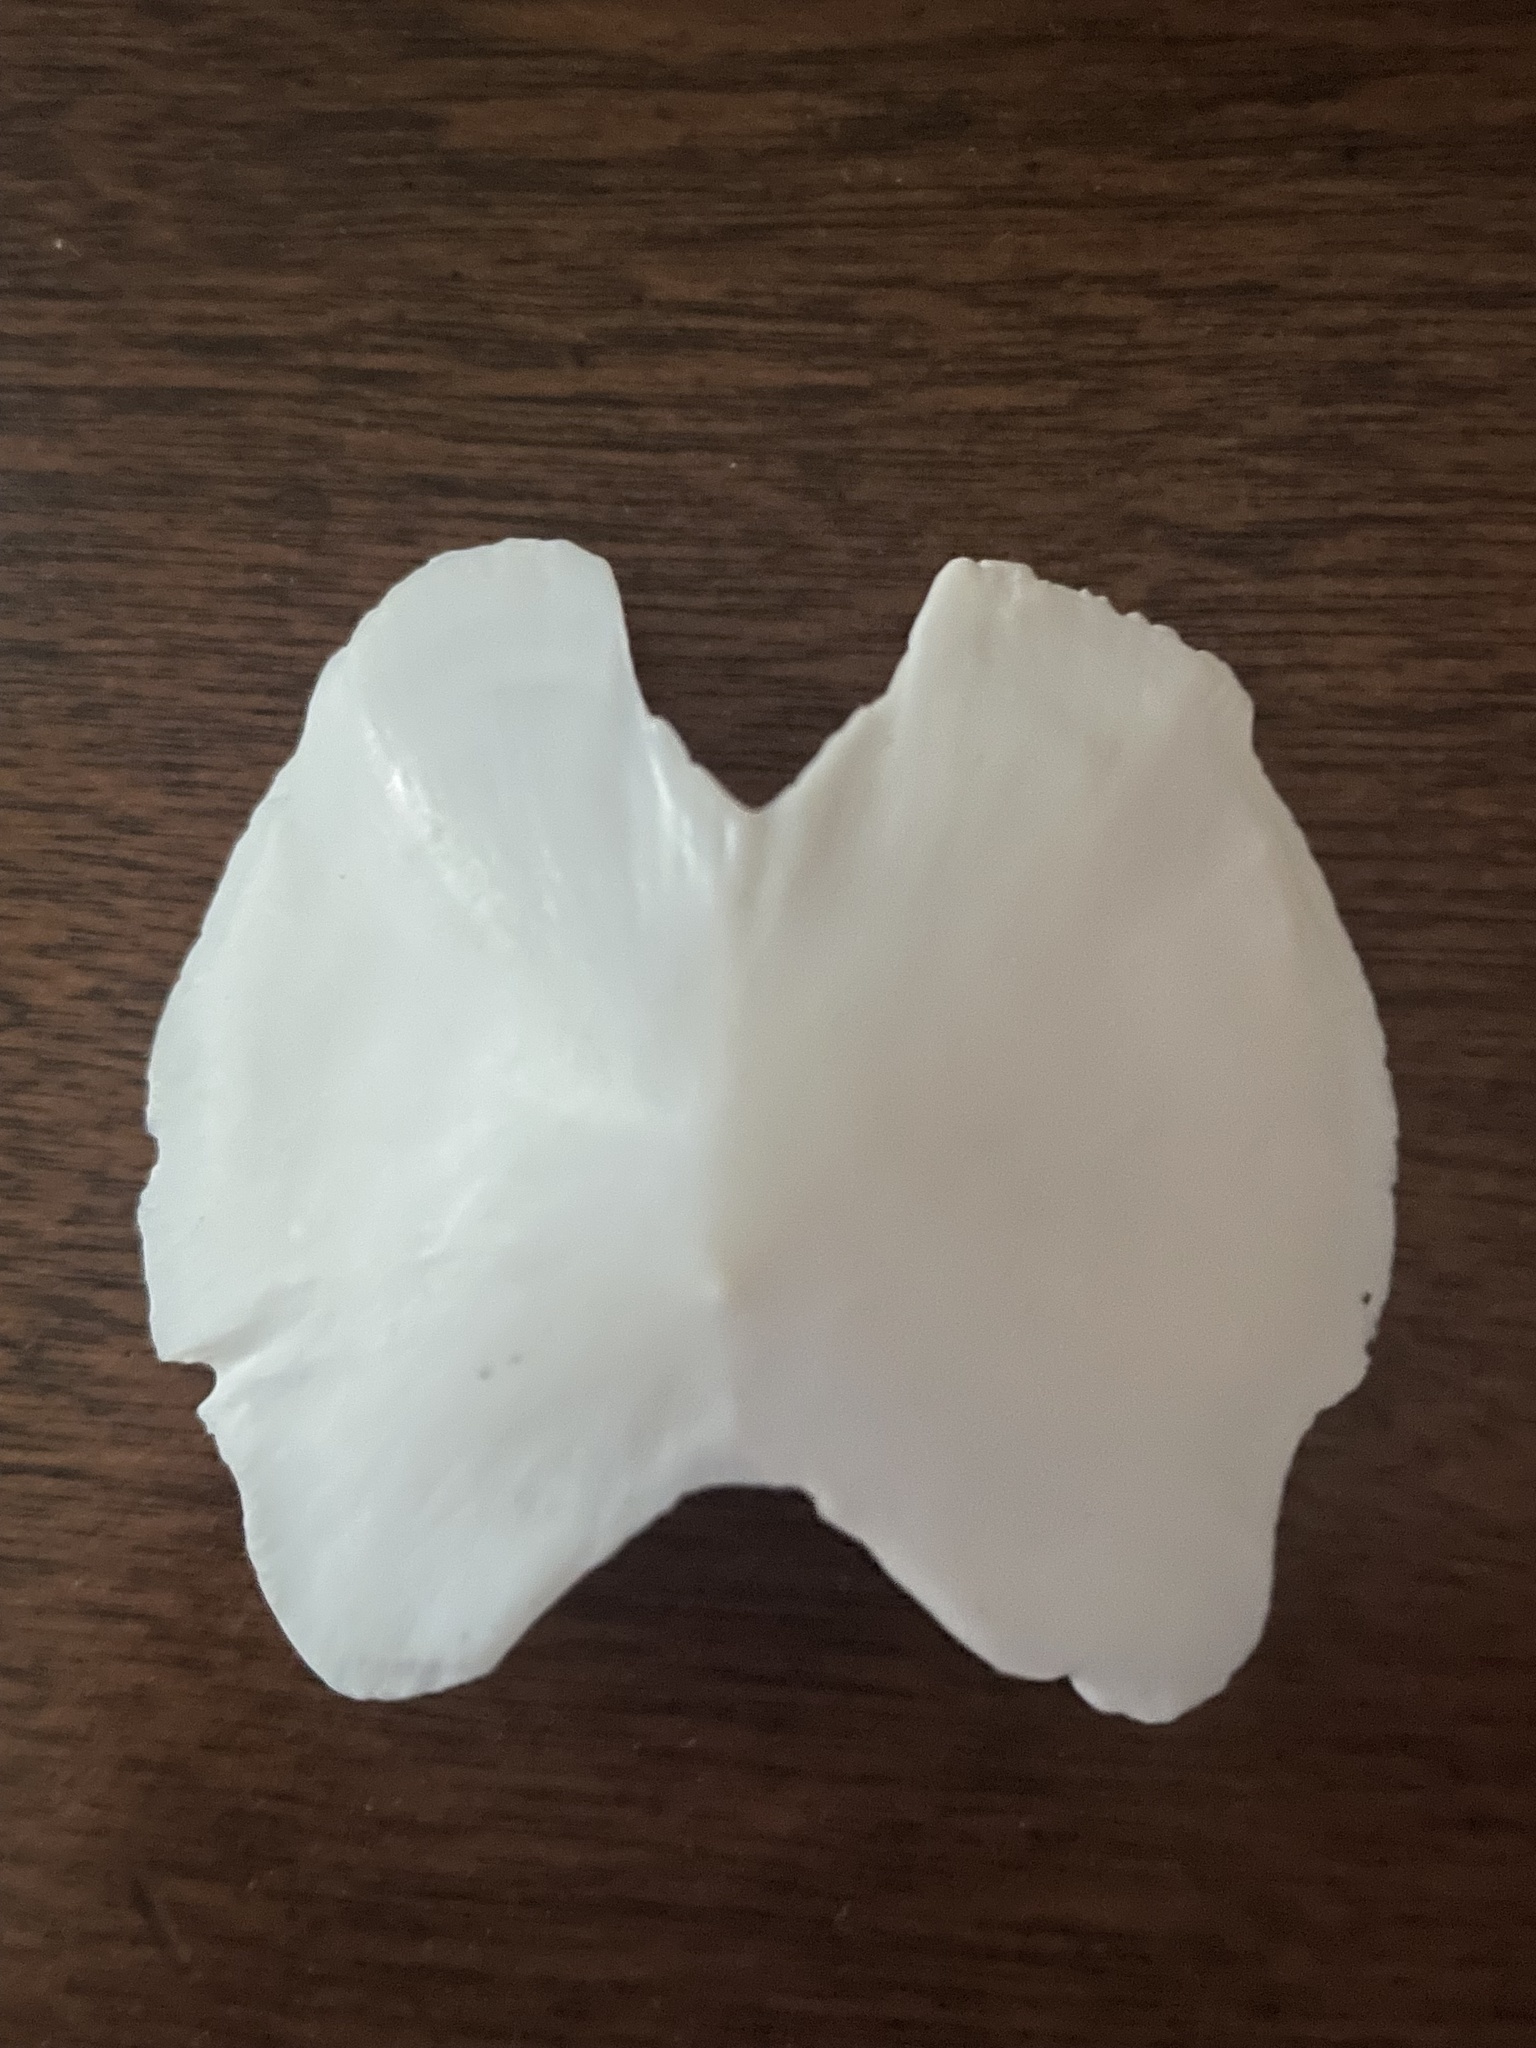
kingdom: Animalia
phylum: Mollusca
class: Polyplacophora
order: Chitonida
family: Acanthochitonidae
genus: Cryptochiton
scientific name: Cryptochiton stelleri
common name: Giant pacific chiton
